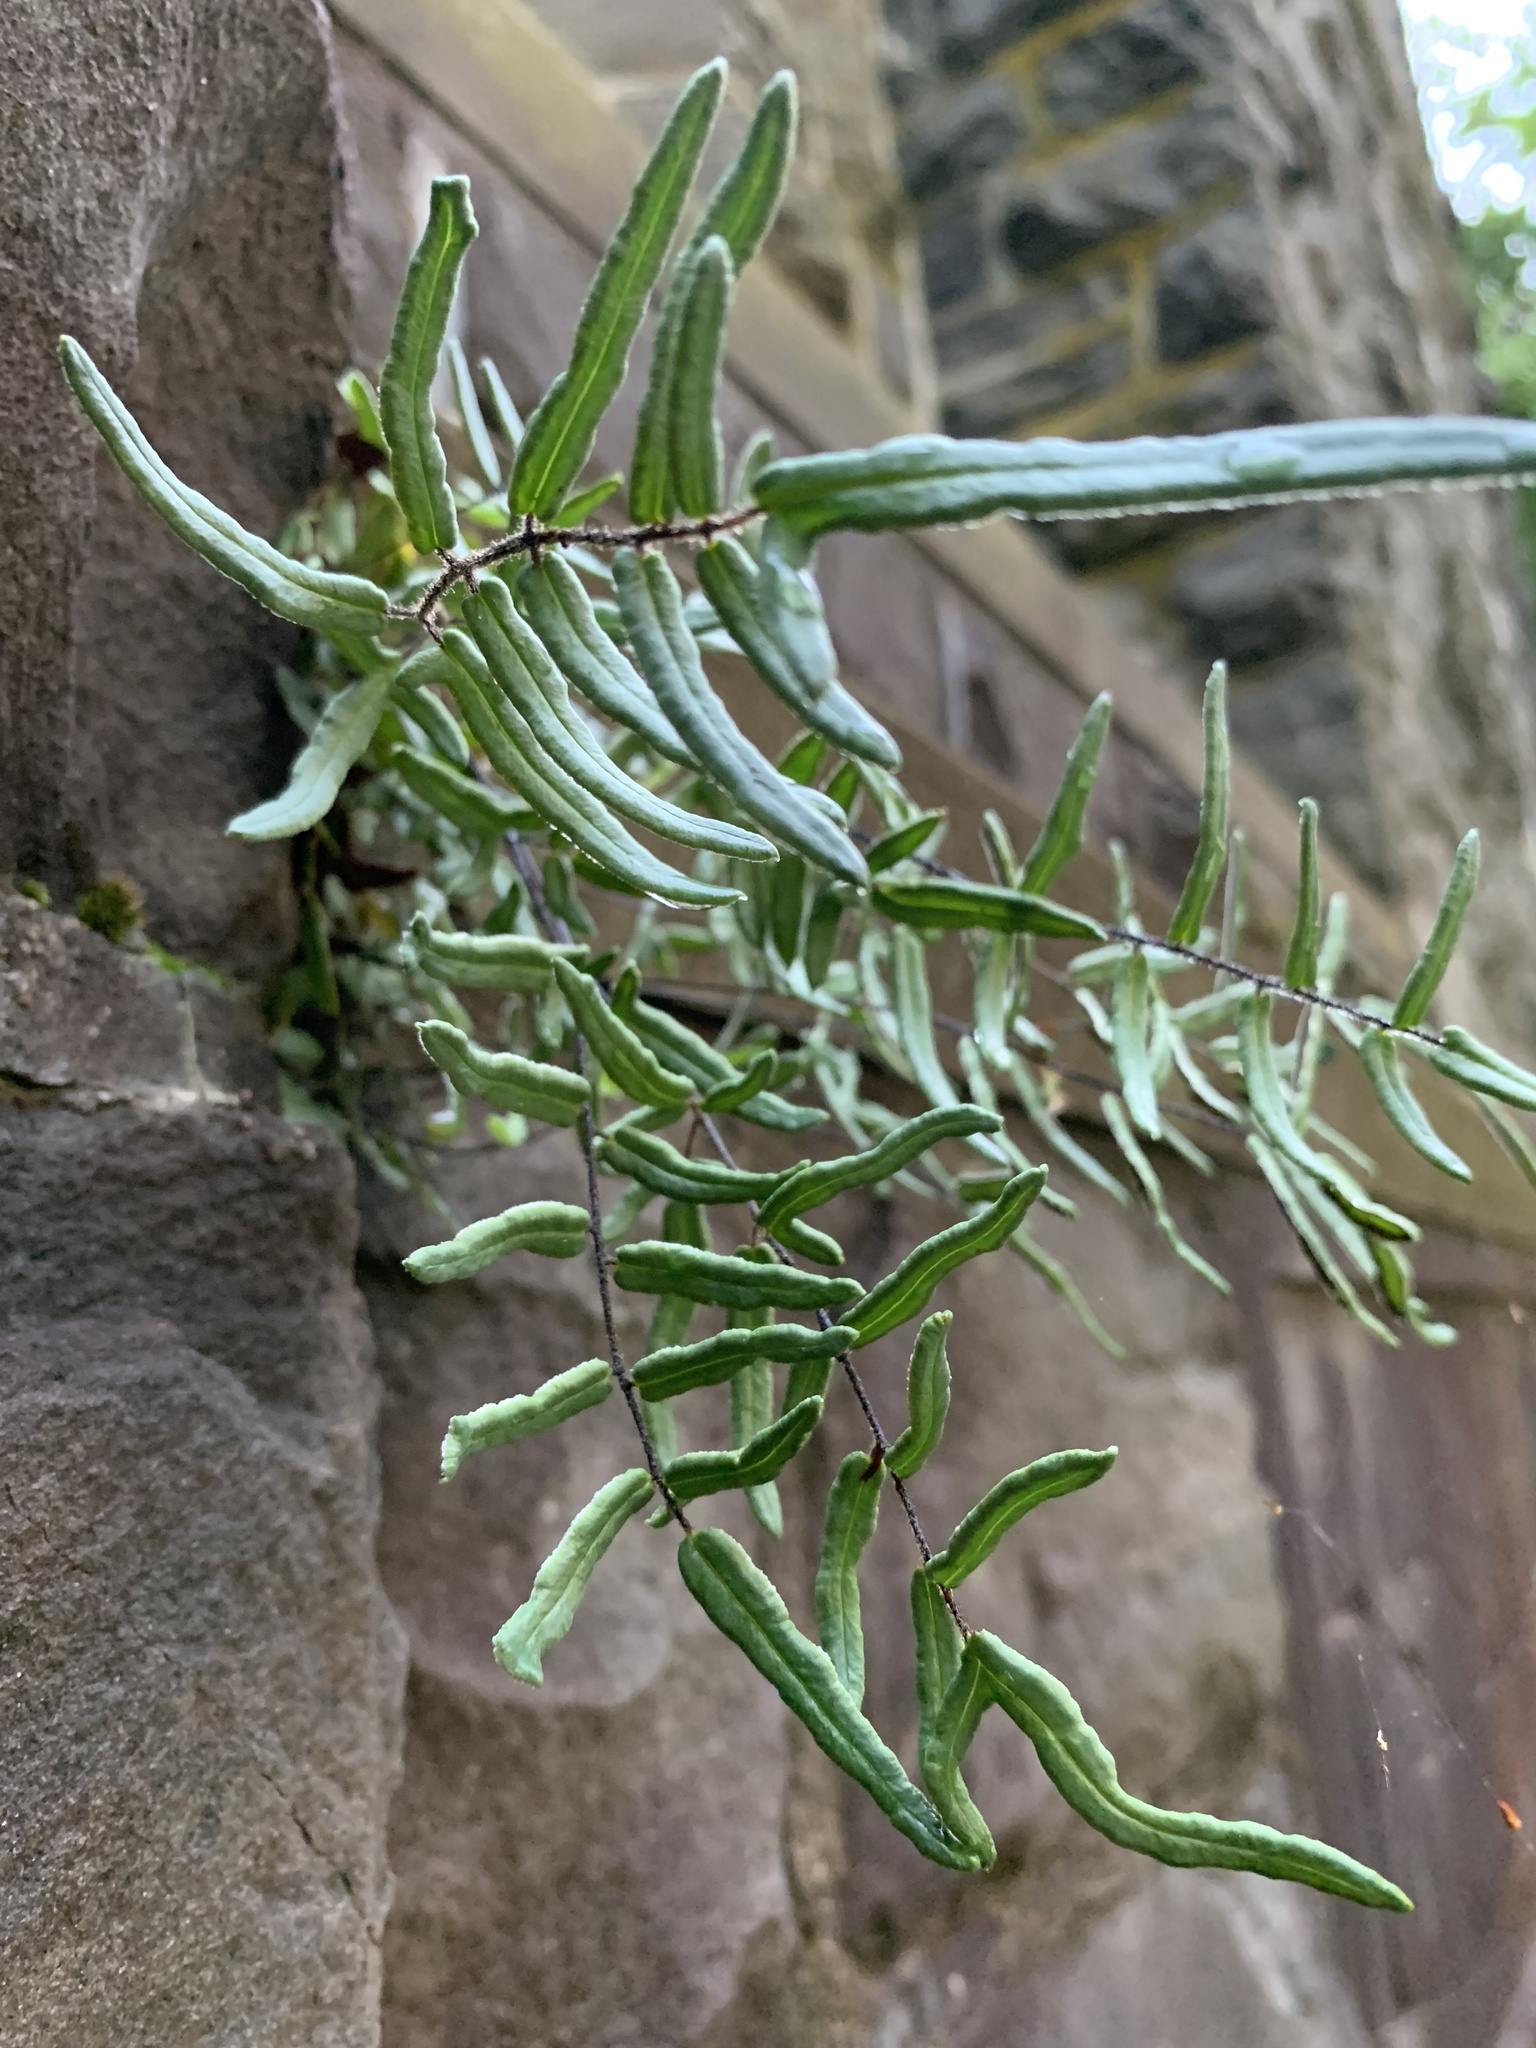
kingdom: Plantae
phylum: Tracheophyta
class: Polypodiopsida
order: Polypodiales
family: Pteridaceae
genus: Pellaea
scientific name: Pellaea atropurpurea
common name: Hairy cliffbrake
